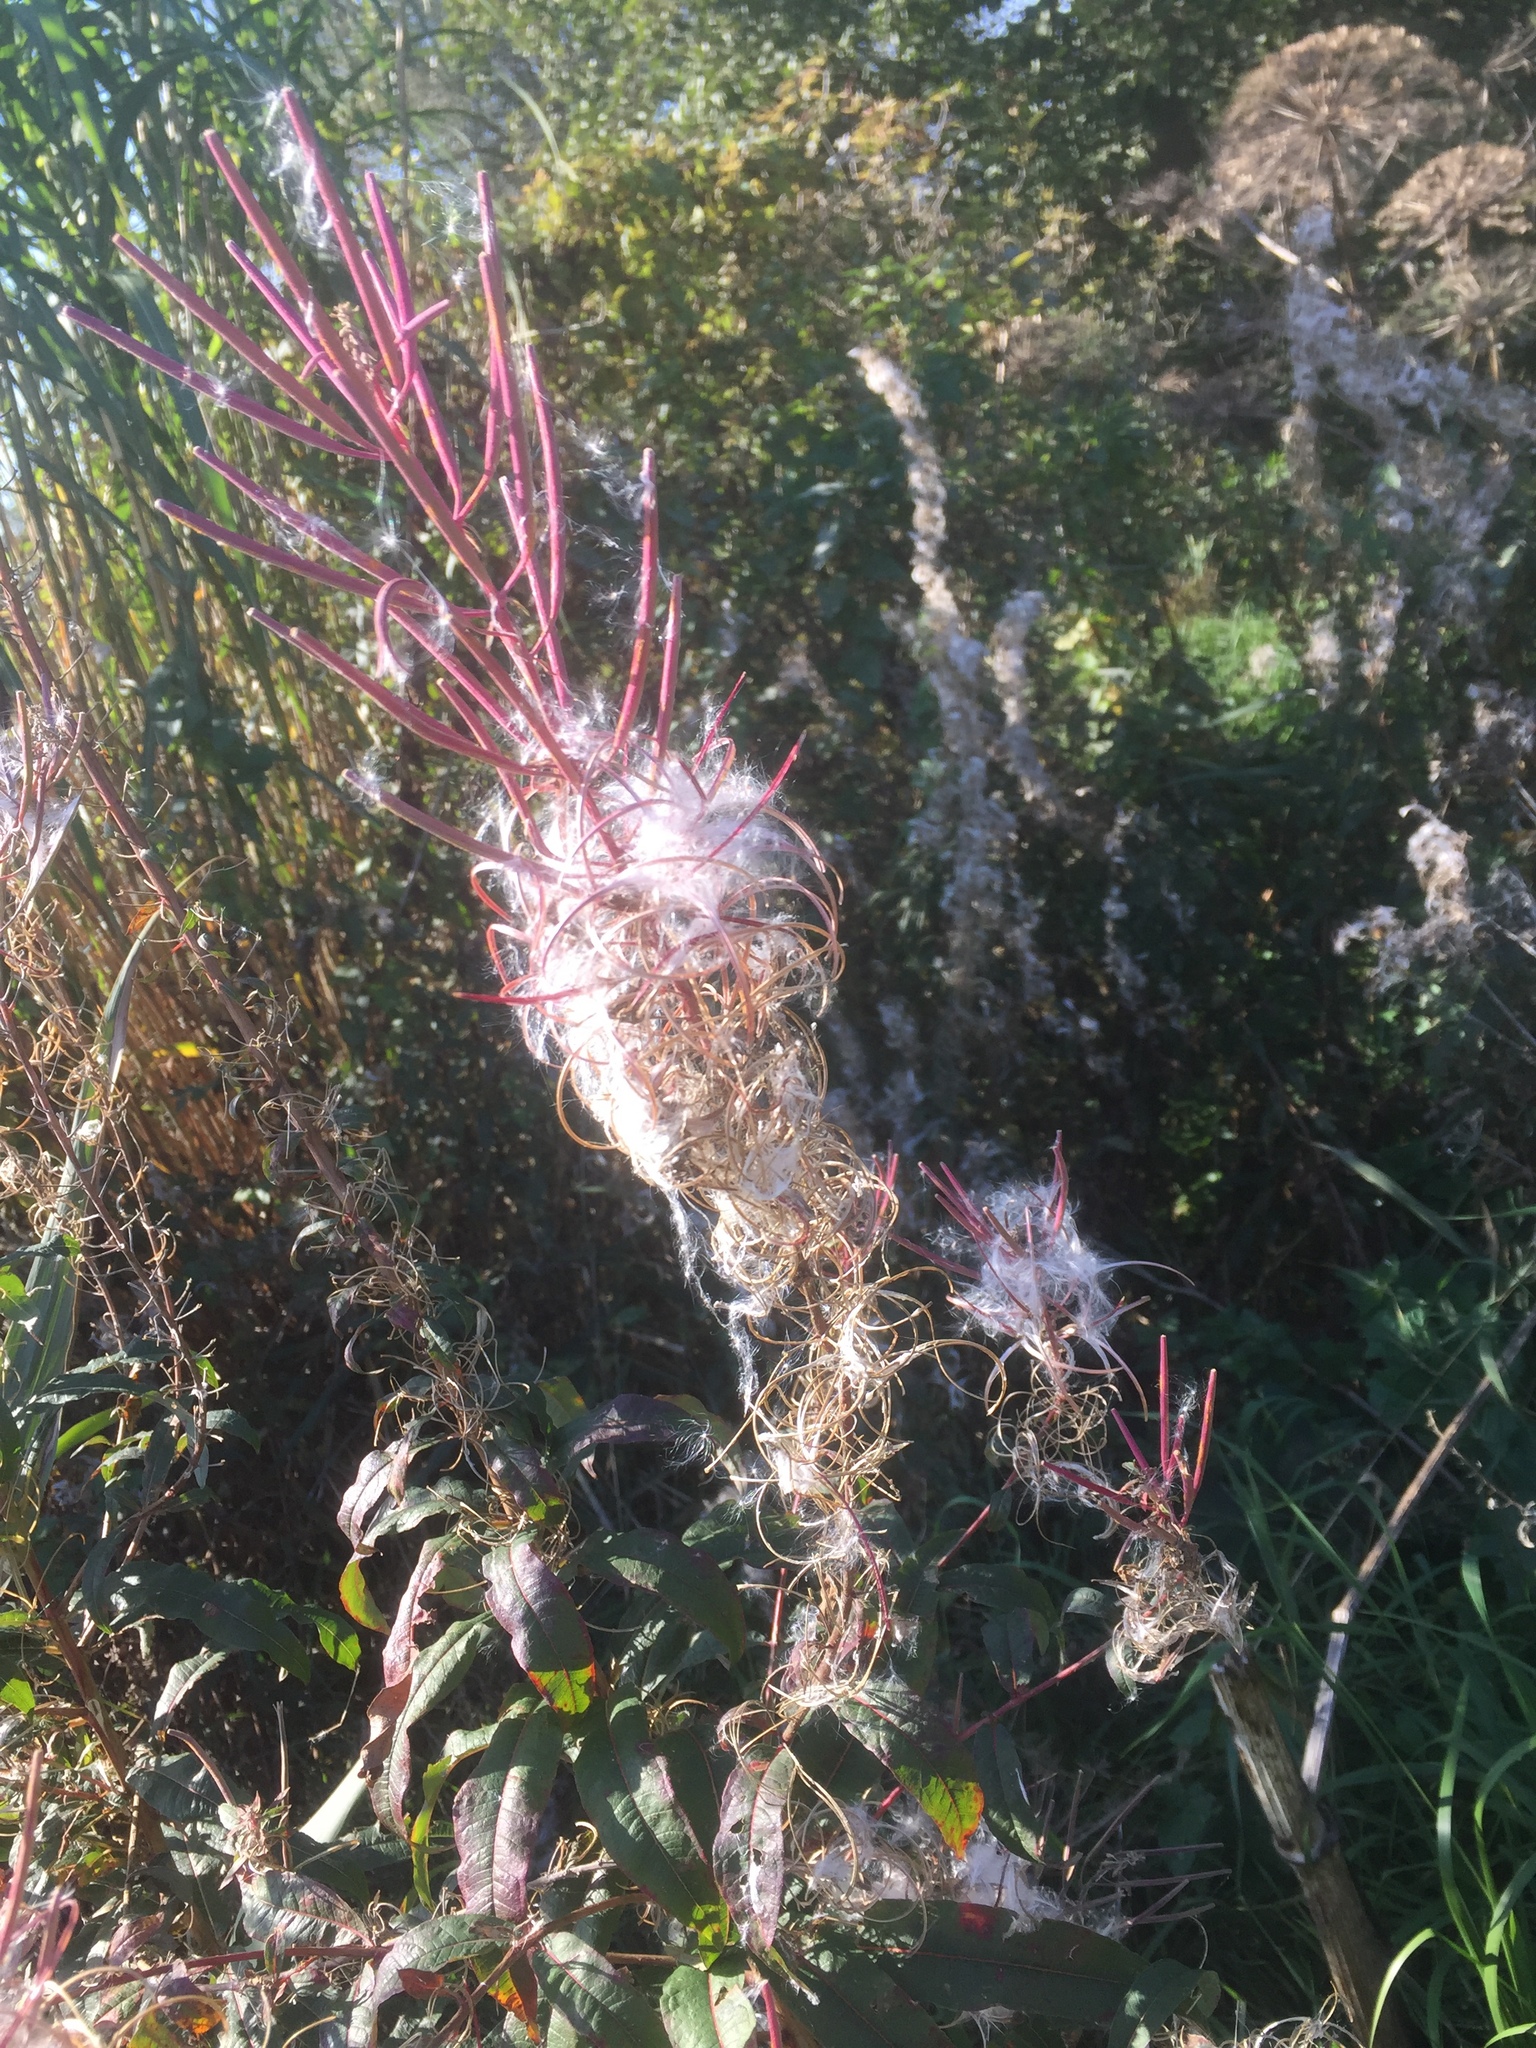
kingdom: Plantae
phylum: Tracheophyta
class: Magnoliopsida
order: Myrtales
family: Onagraceae
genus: Chamaenerion
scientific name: Chamaenerion angustifolium
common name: Fireweed
